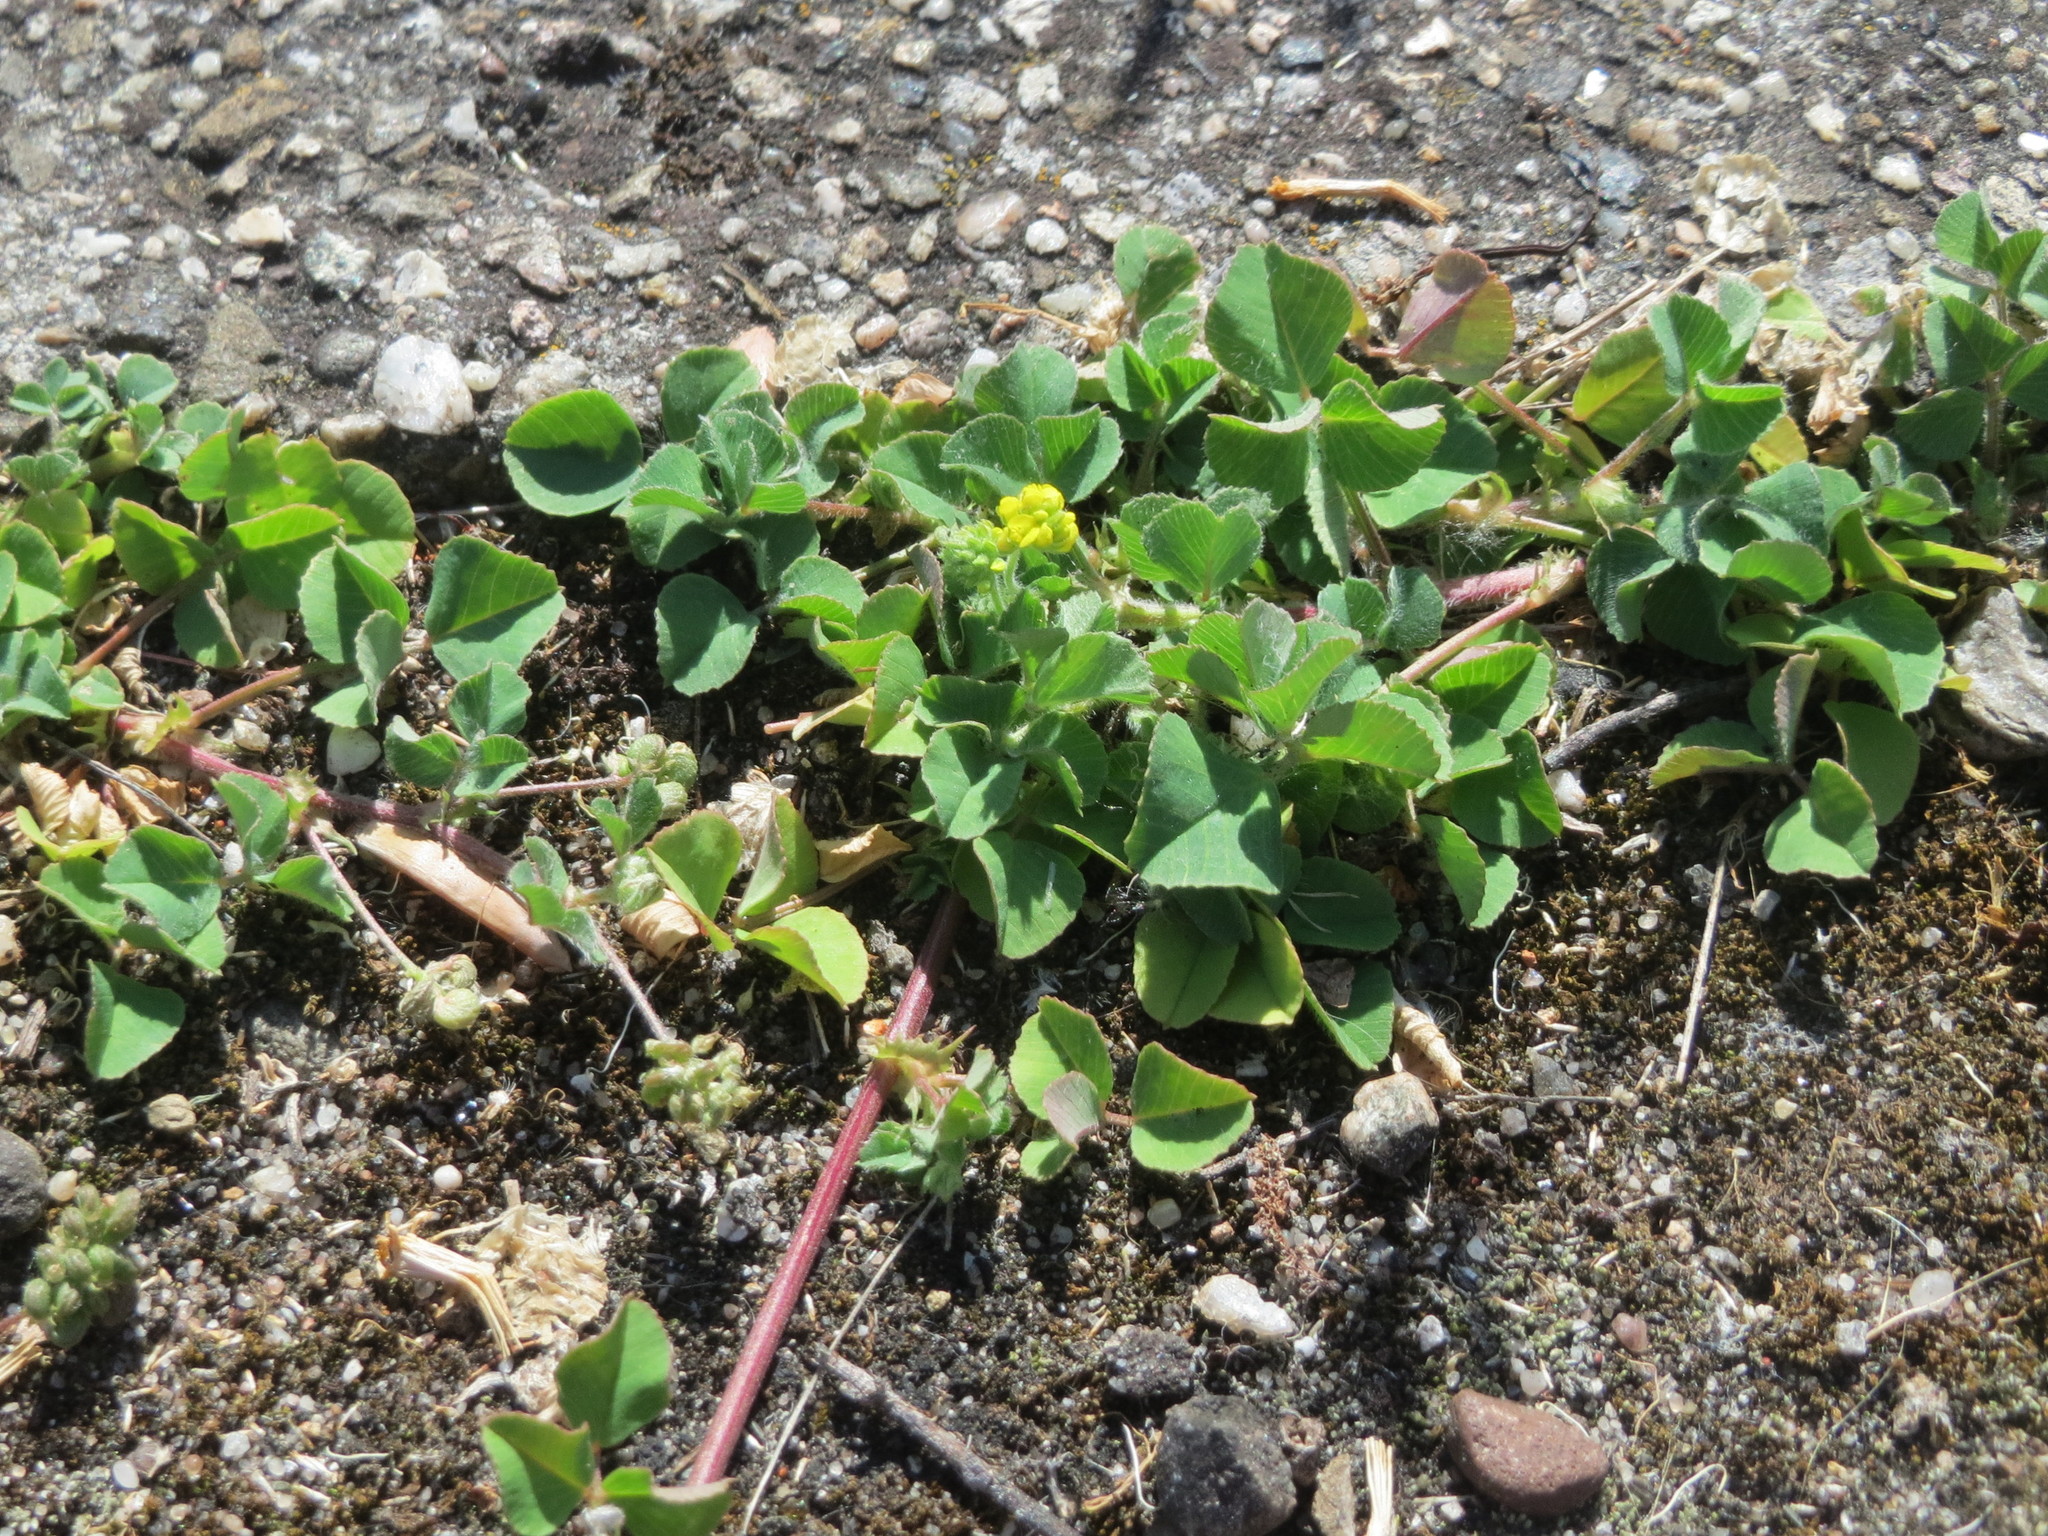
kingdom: Plantae
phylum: Tracheophyta
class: Magnoliopsida
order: Fabales
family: Fabaceae
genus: Medicago
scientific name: Medicago lupulina
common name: Black medick
